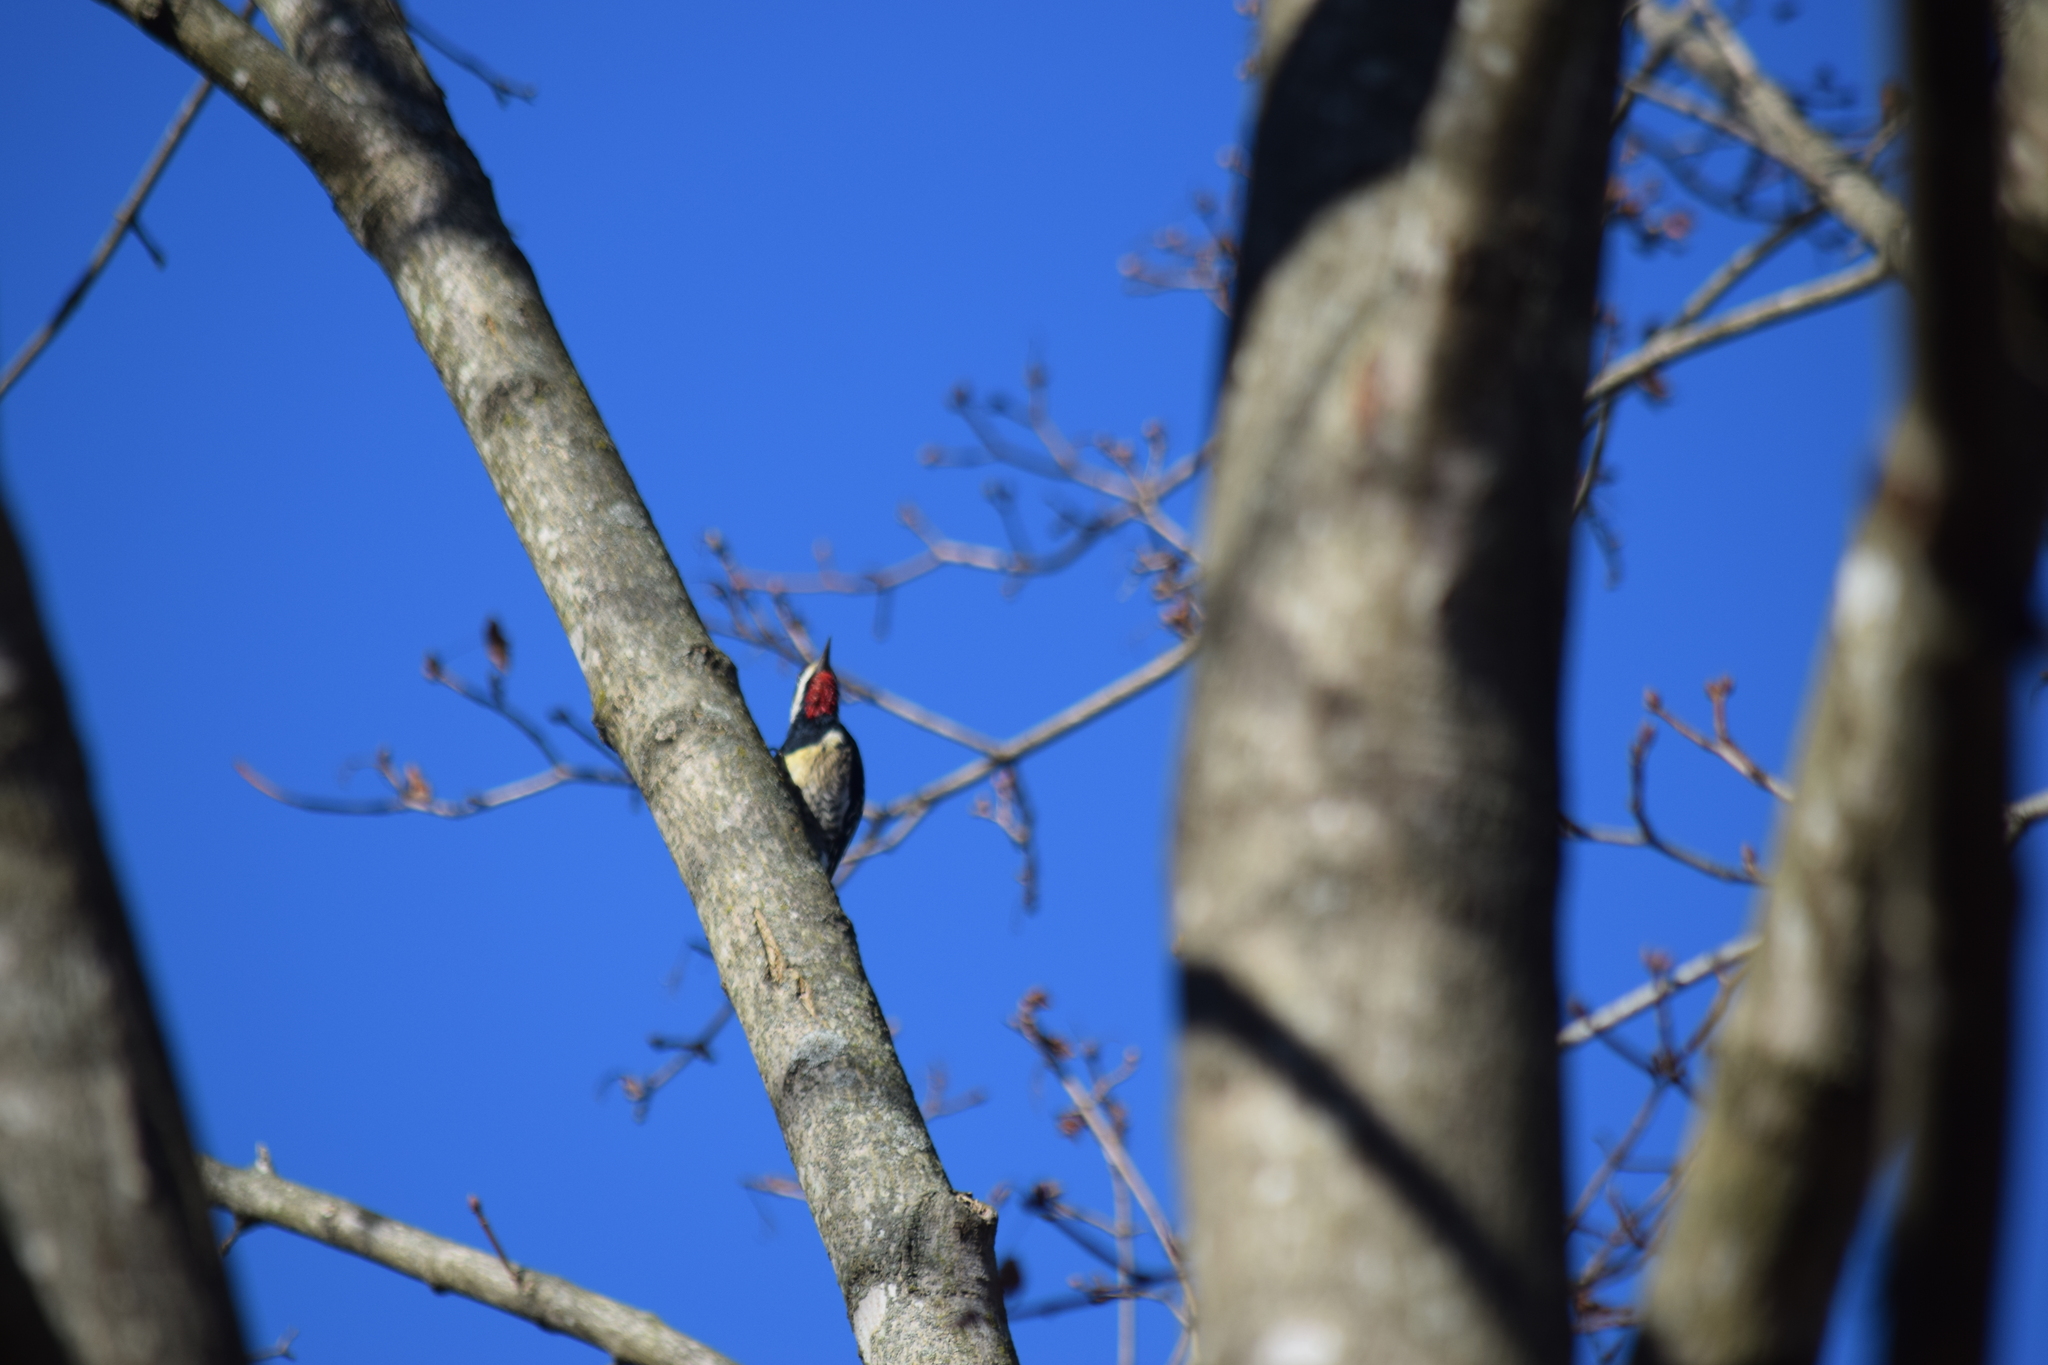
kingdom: Animalia
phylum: Chordata
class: Aves
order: Piciformes
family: Picidae
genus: Sphyrapicus
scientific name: Sphyrapicus varius
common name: Yellow-bellied sapsucker
